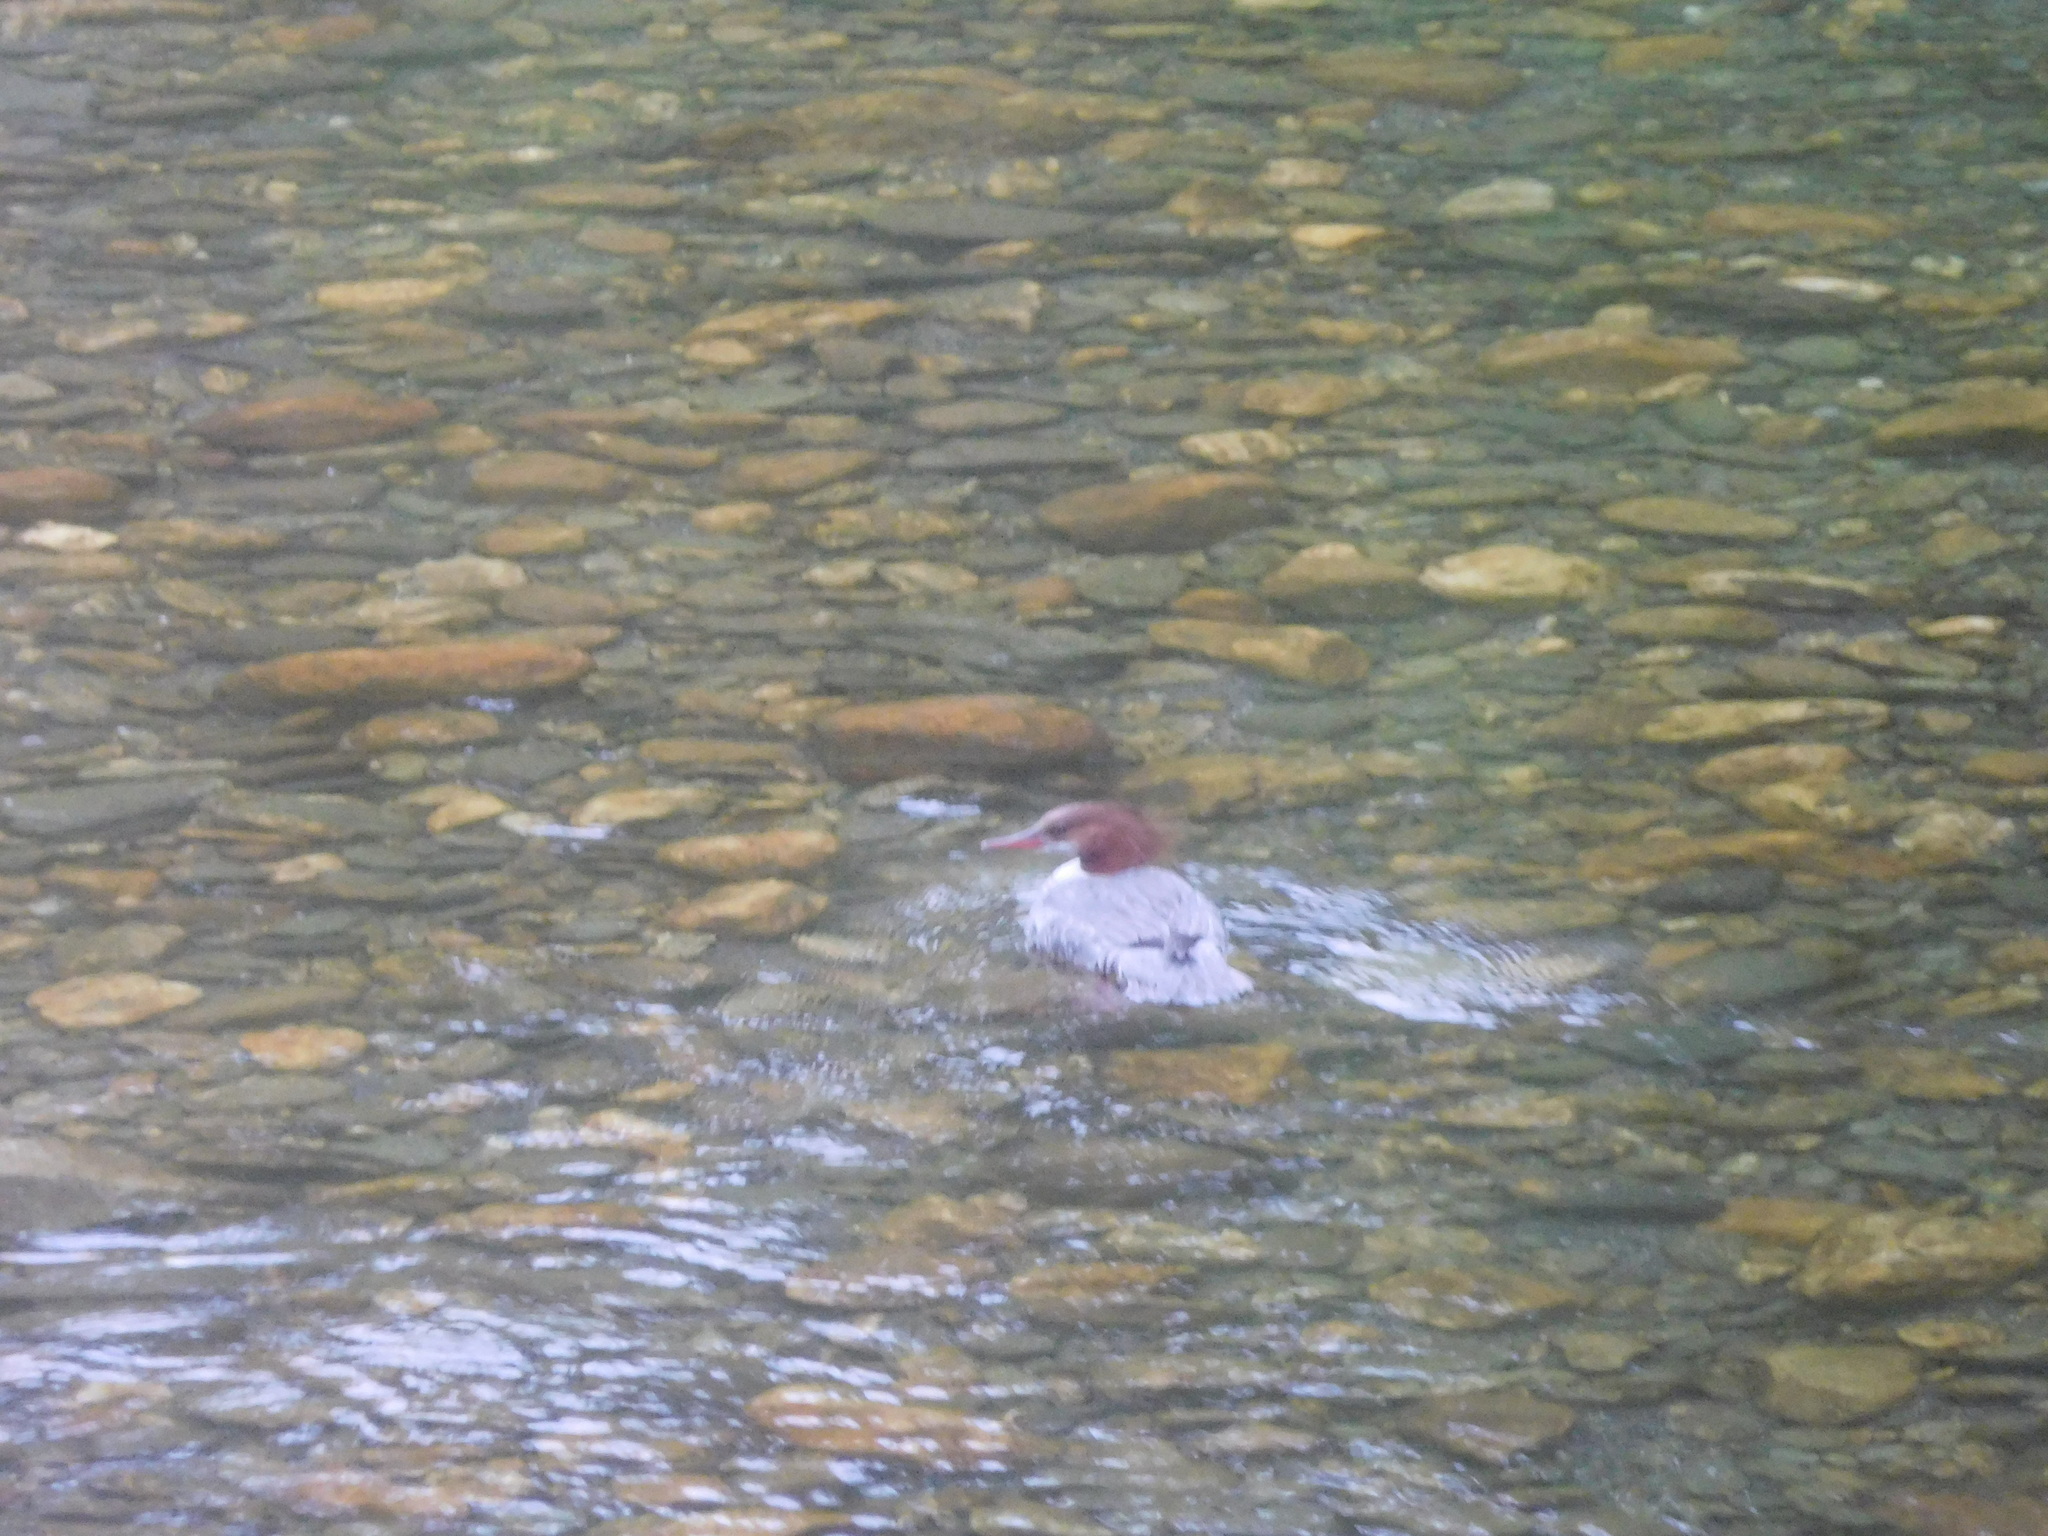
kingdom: Animalia
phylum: Chordata
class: Aves
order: Anseriformes
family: Anatidae
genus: Mergus
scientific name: Mergus merganser
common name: Common merganser
